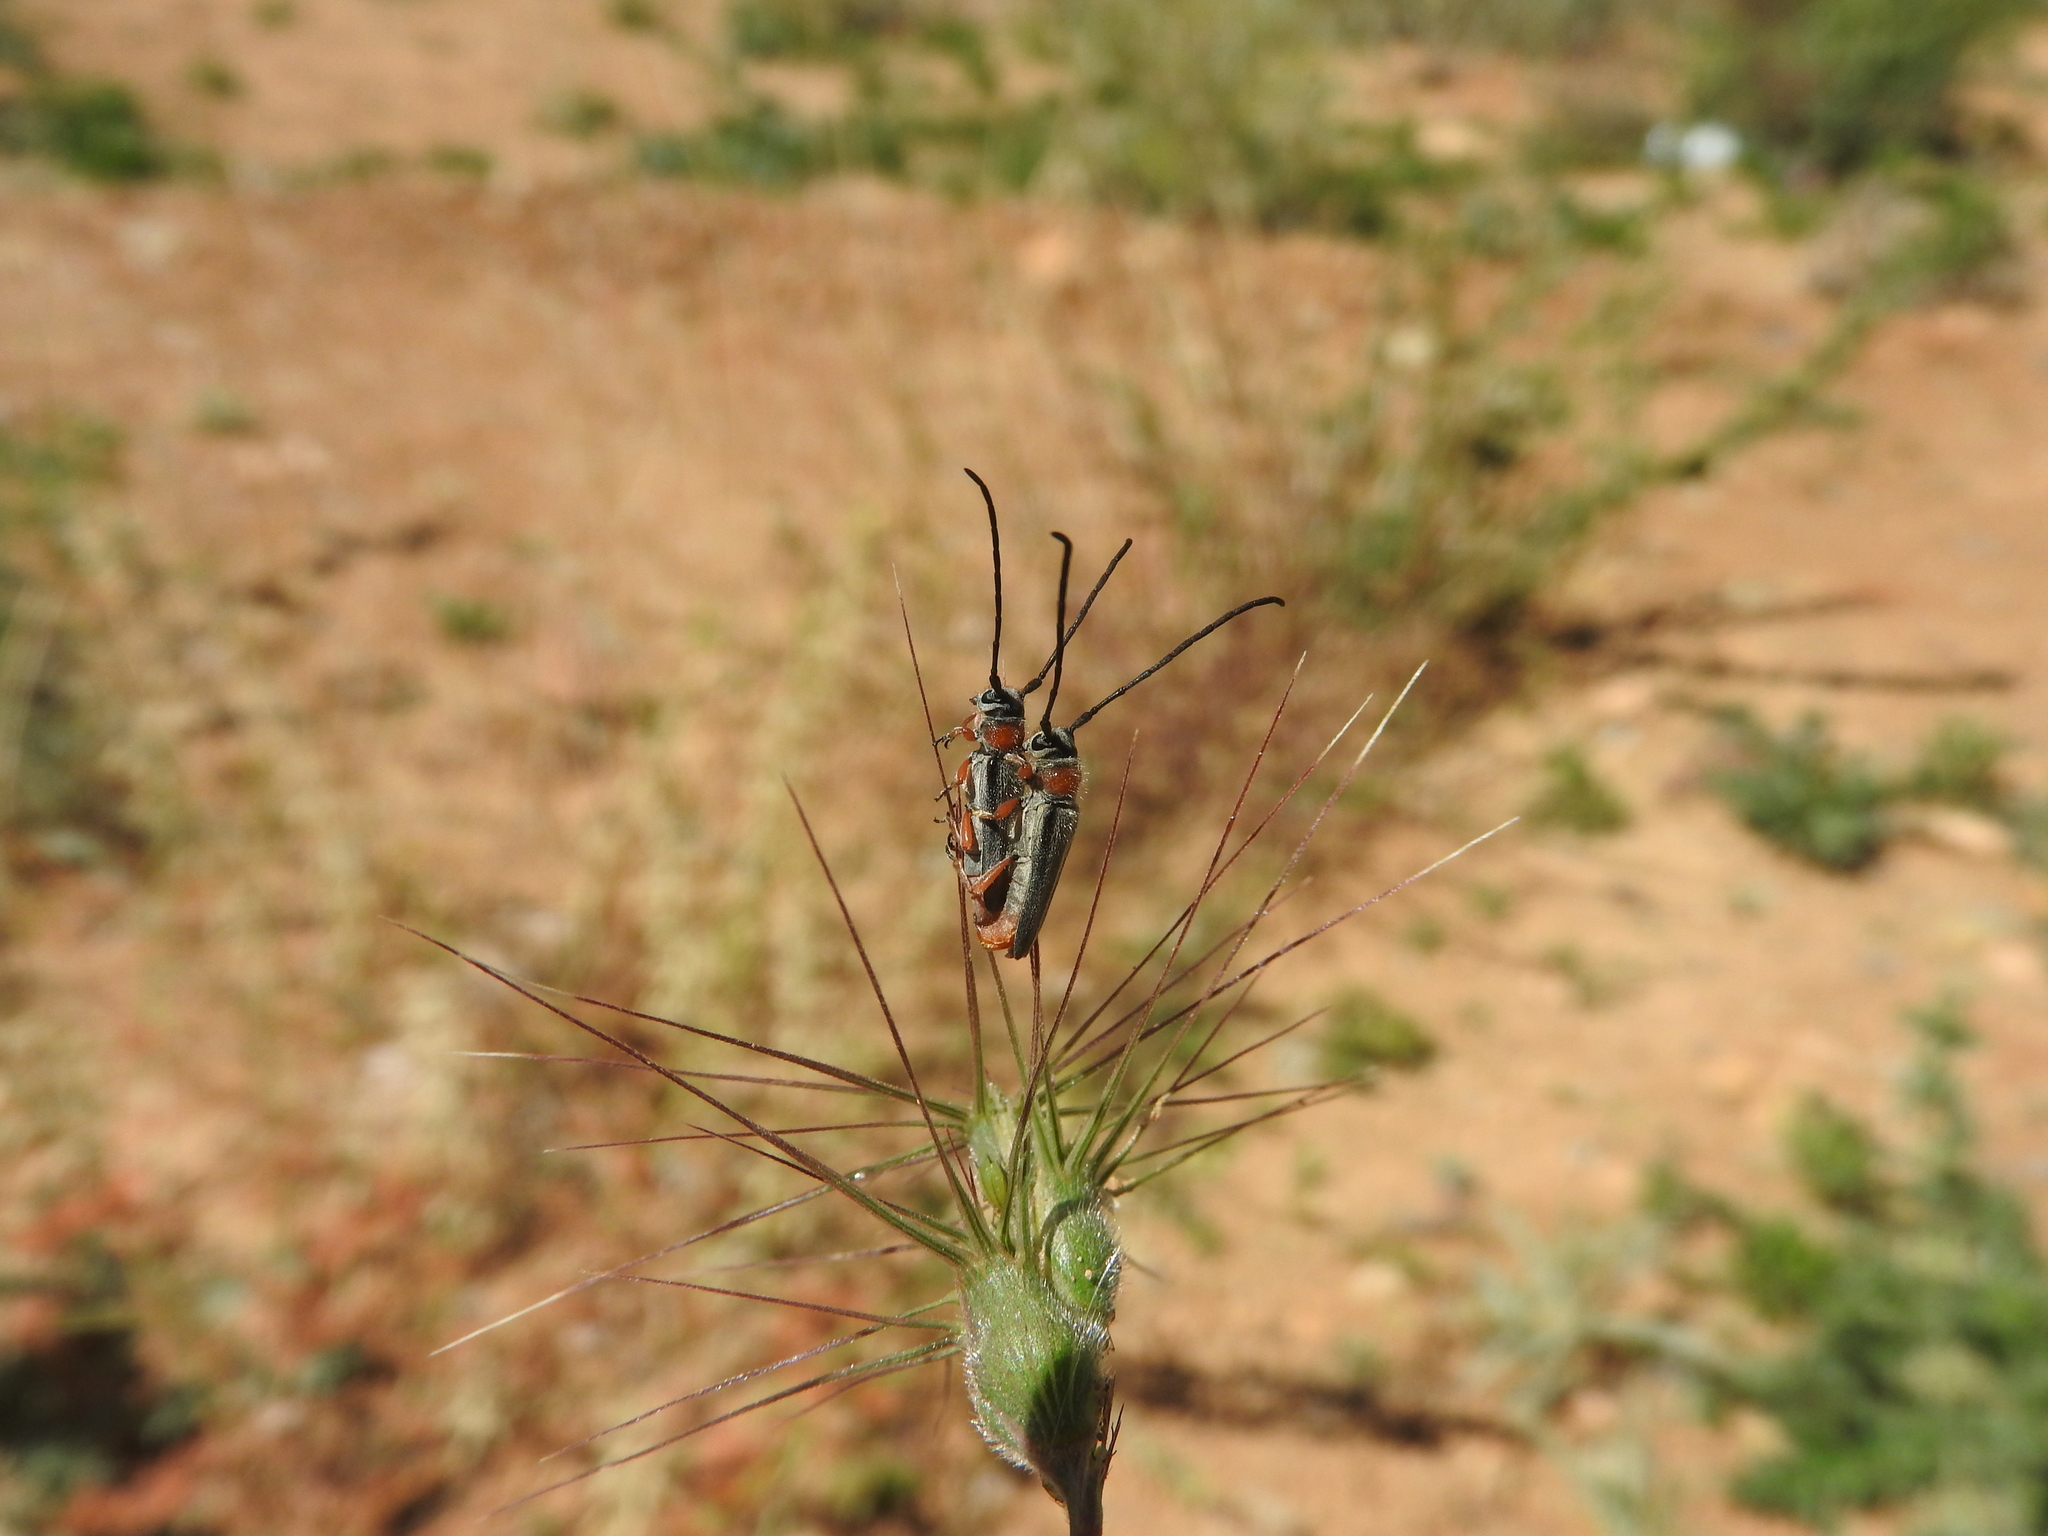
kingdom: Animalia
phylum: Arthropoda
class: Insecta
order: Coleoptera
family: Cerambycidae
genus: Phytoecia
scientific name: Phytoecia melanocephala
